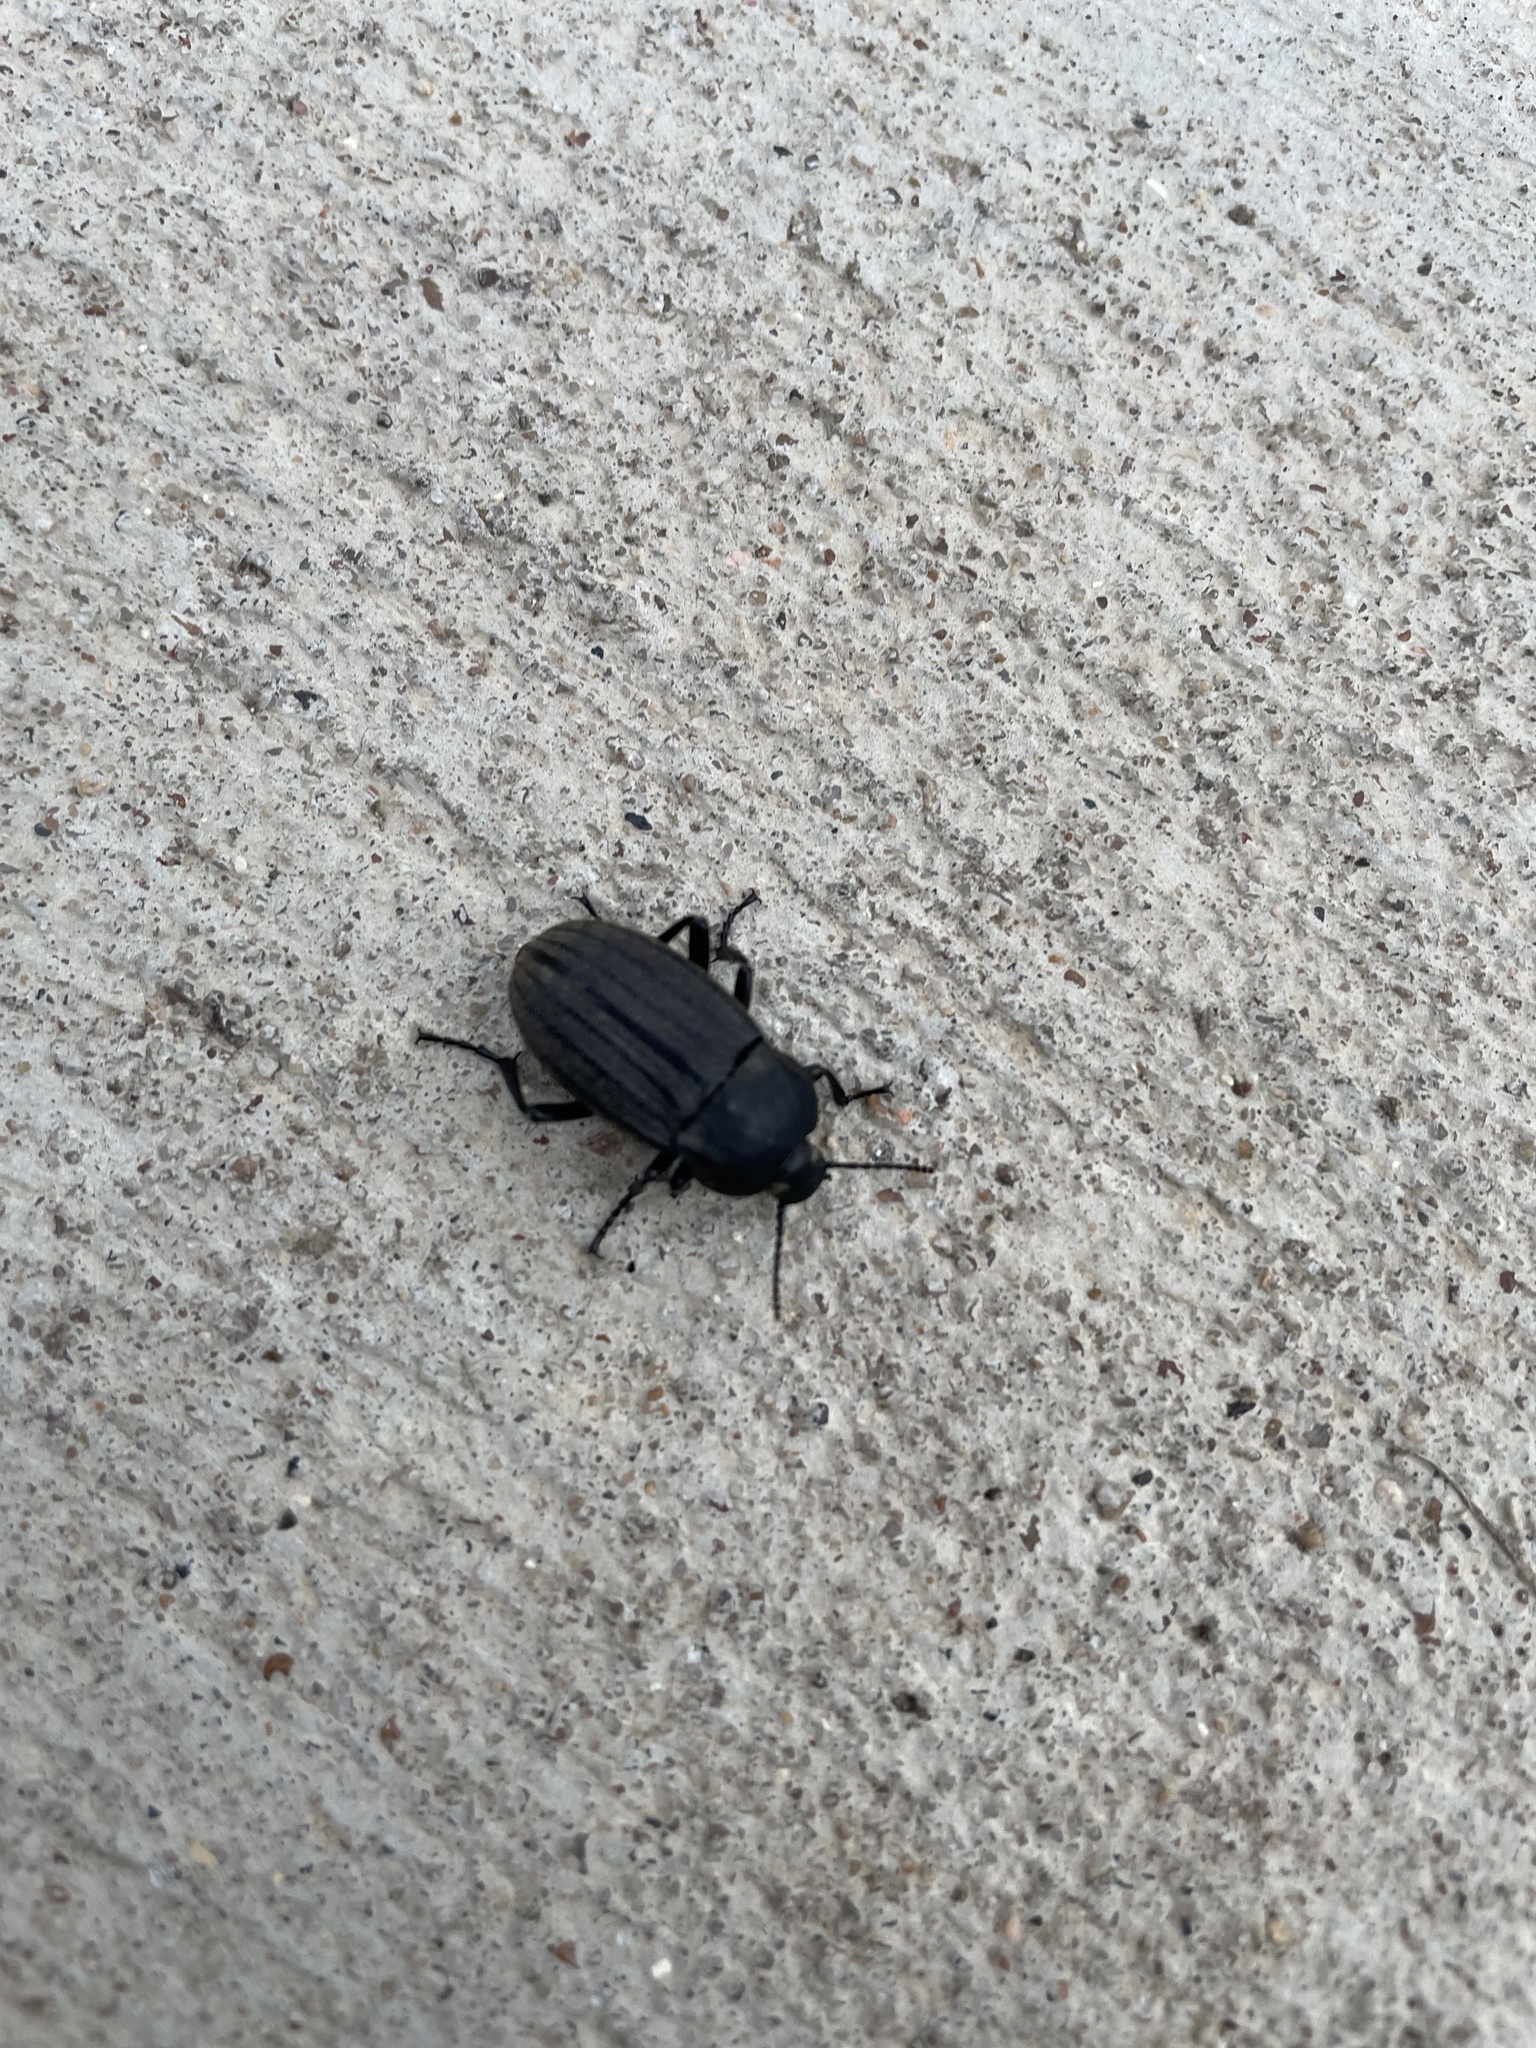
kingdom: Animalia
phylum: Arthropoda
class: Insecta
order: Coleoptera
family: Tenebrionidae
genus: Eleodes
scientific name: Eleodes tricostata
